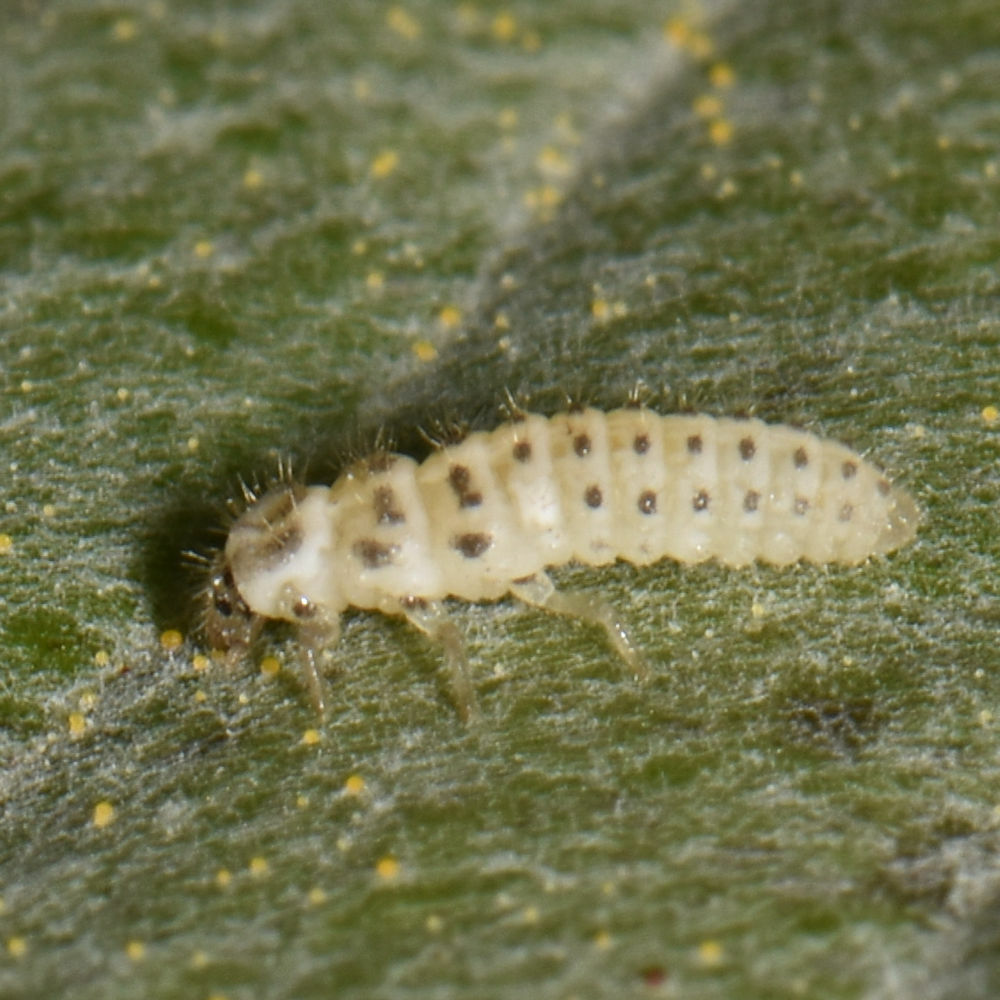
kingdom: Animalia
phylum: Arthropoda
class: Insecta
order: Coleoptera
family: Coccinellidae
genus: Psyllobora
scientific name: Psyllobora vigintimaculata
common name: Ladybird beetle
